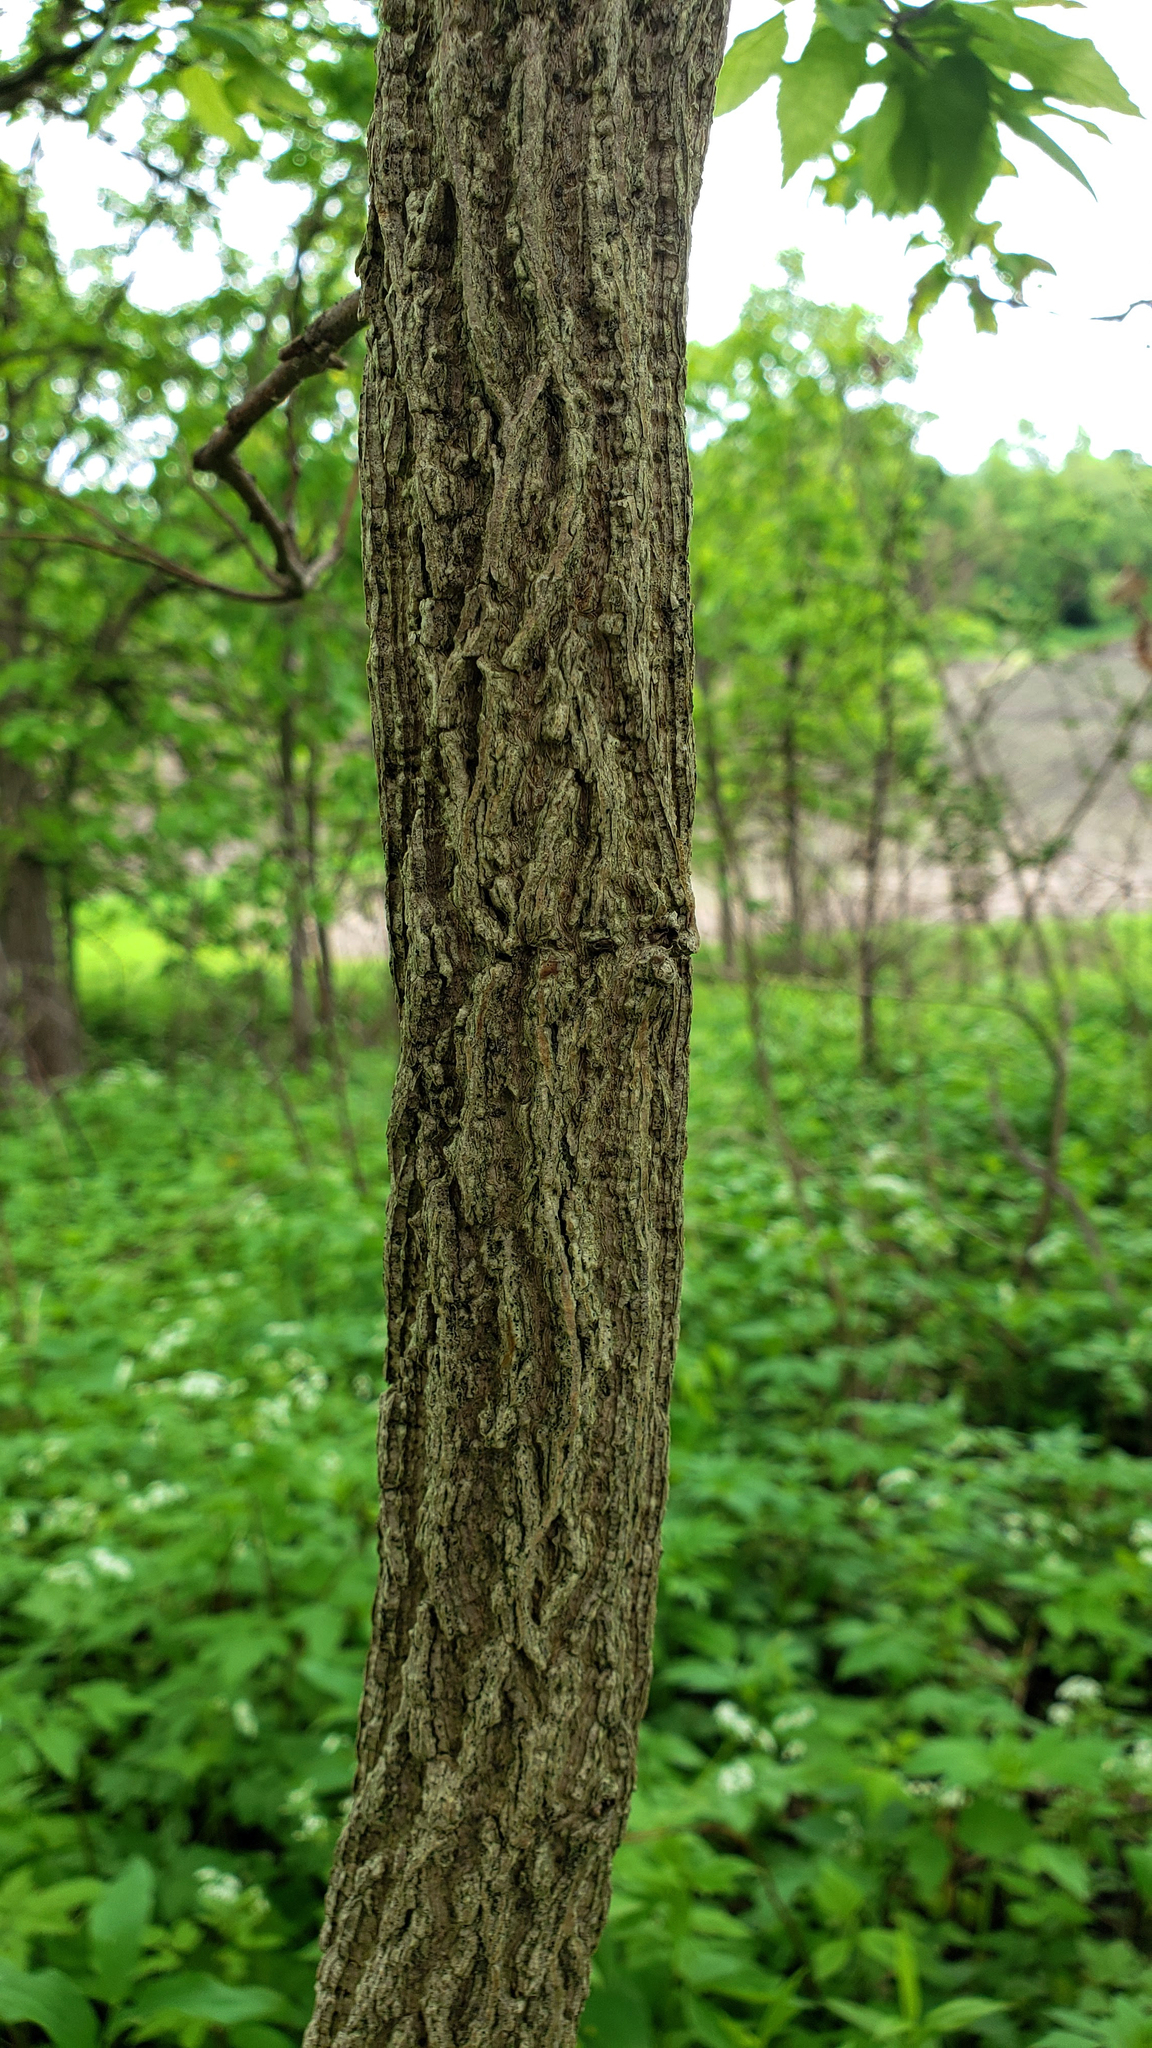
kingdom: Plantae
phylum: Tracheophyta
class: Magnoliopsida
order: Rosales
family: Cannabaceae
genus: Celtis
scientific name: Celtis occidentalis
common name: Common hackberry
